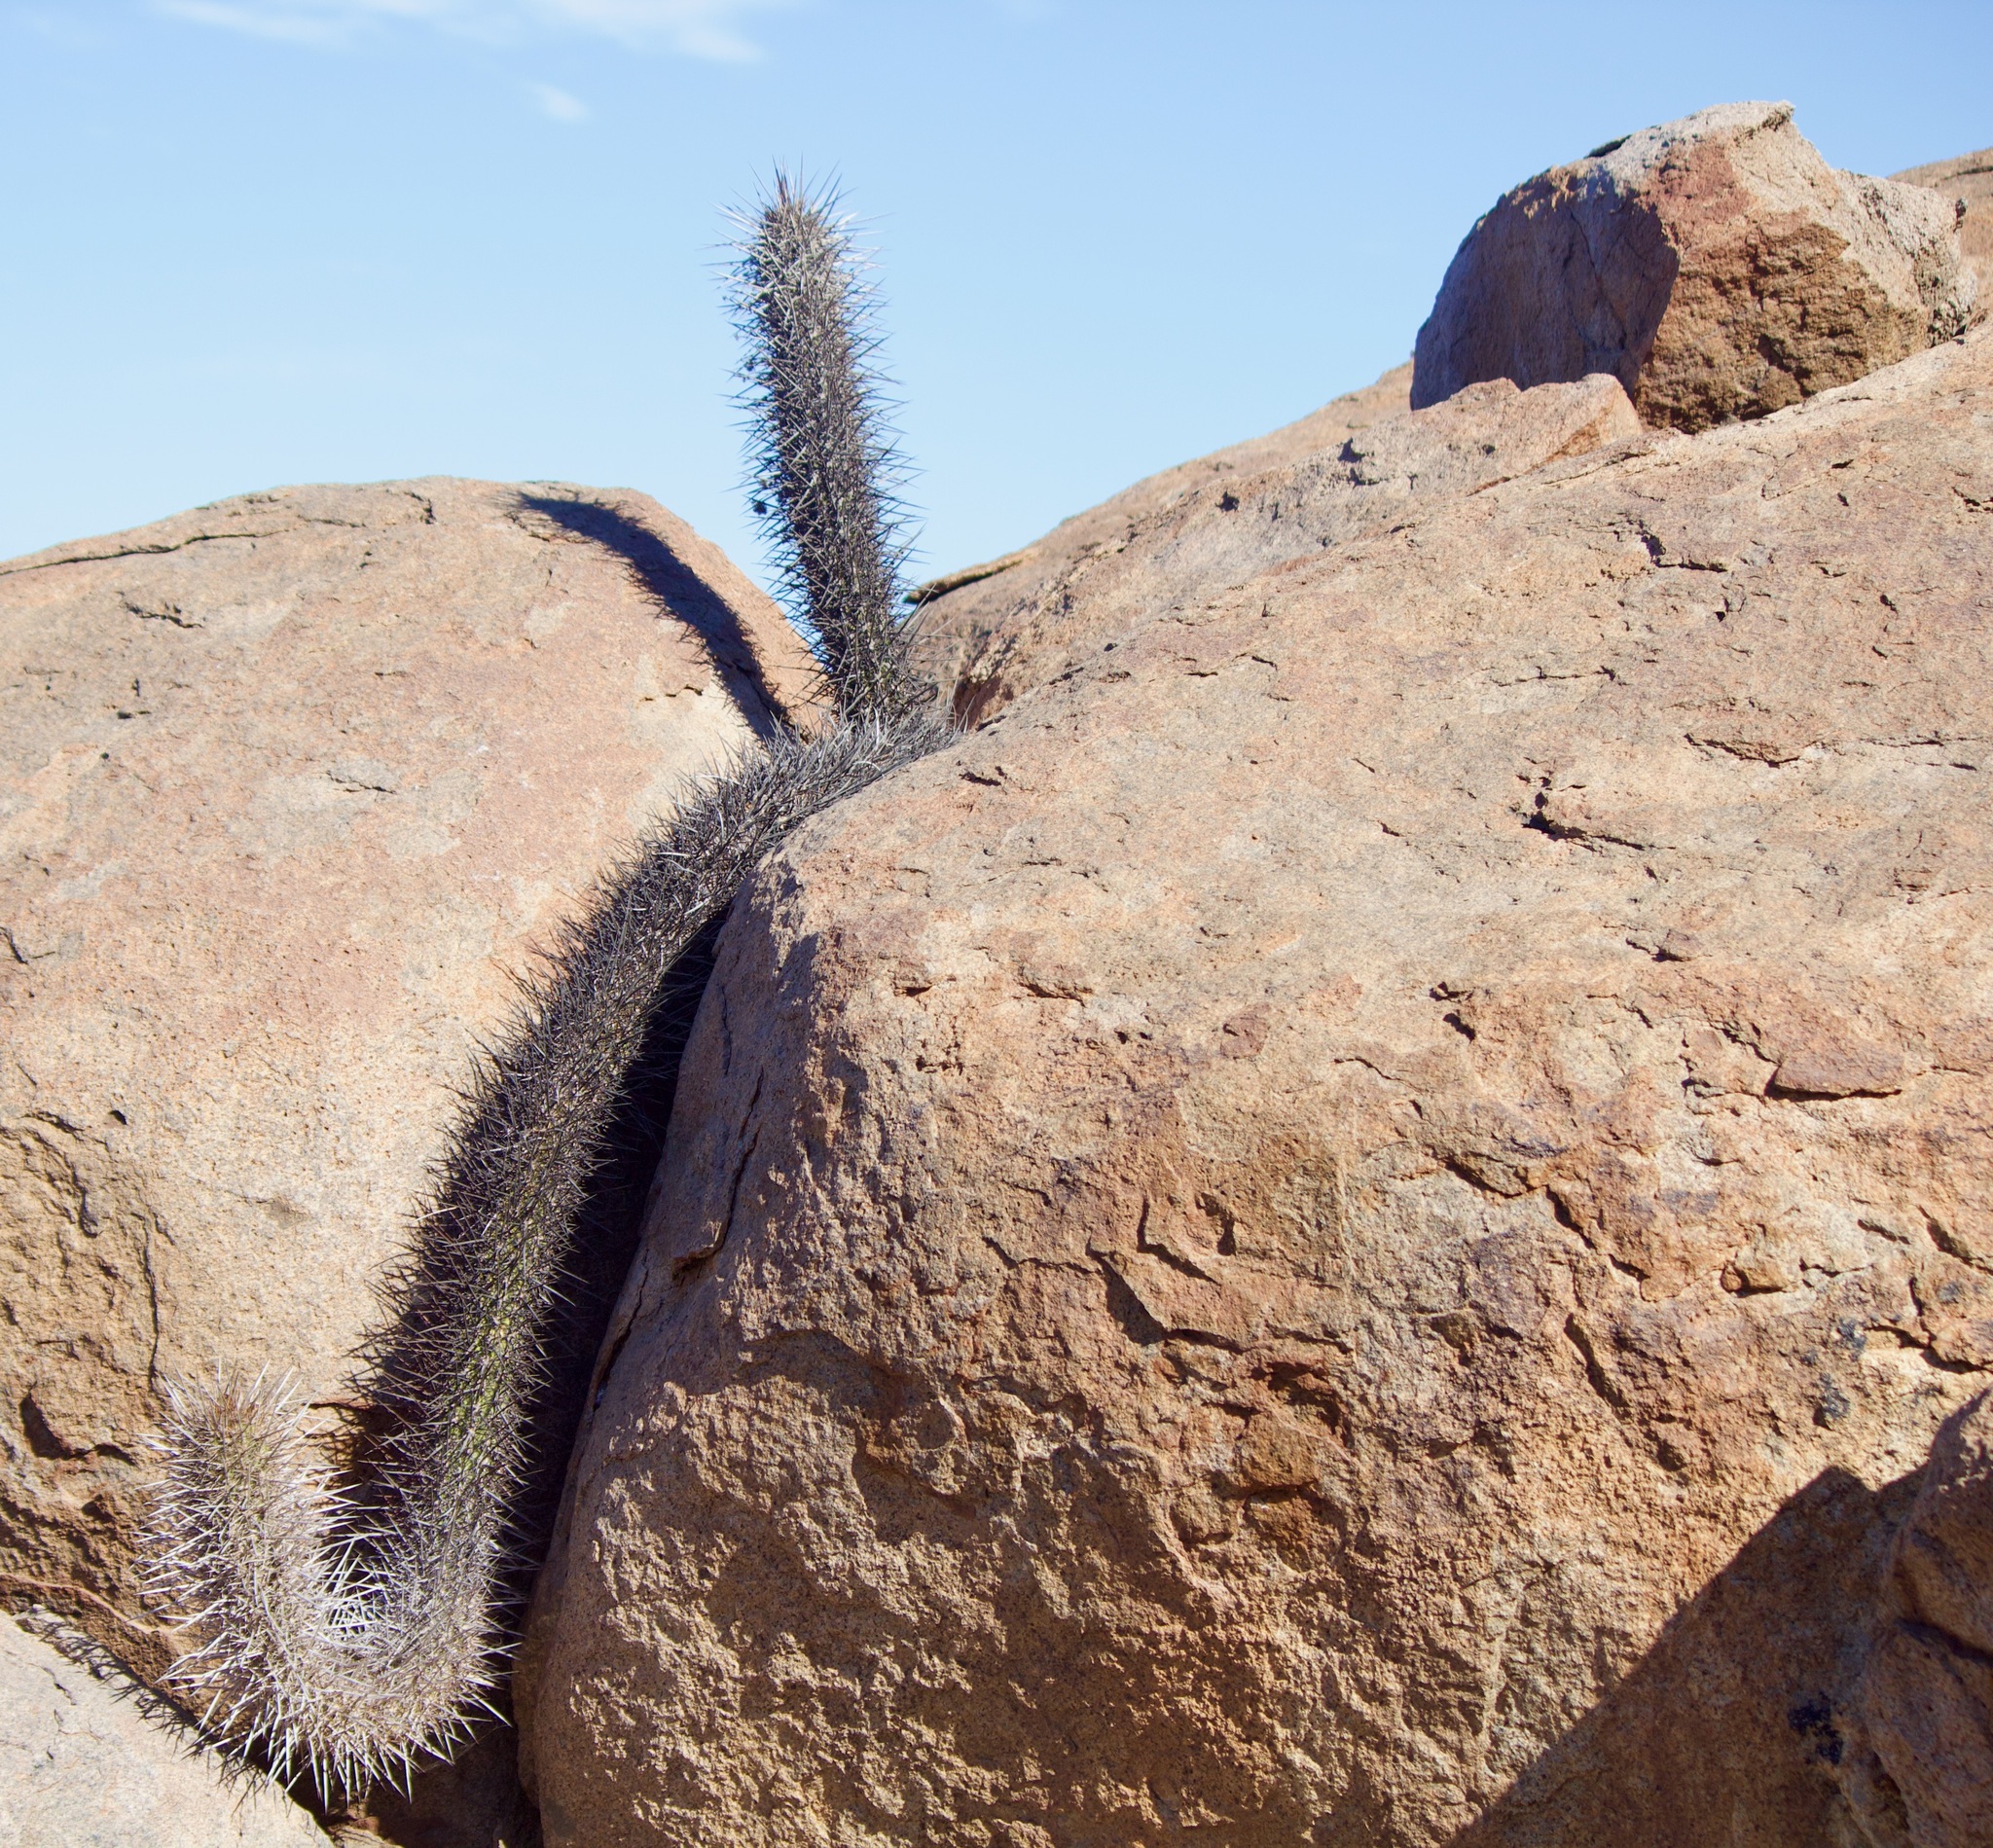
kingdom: Plantae
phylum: Tracheophyta
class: Magnoliopsida
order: Caryophyllales
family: Cactaceae
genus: Leucostele
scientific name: Leucostele deserticola
